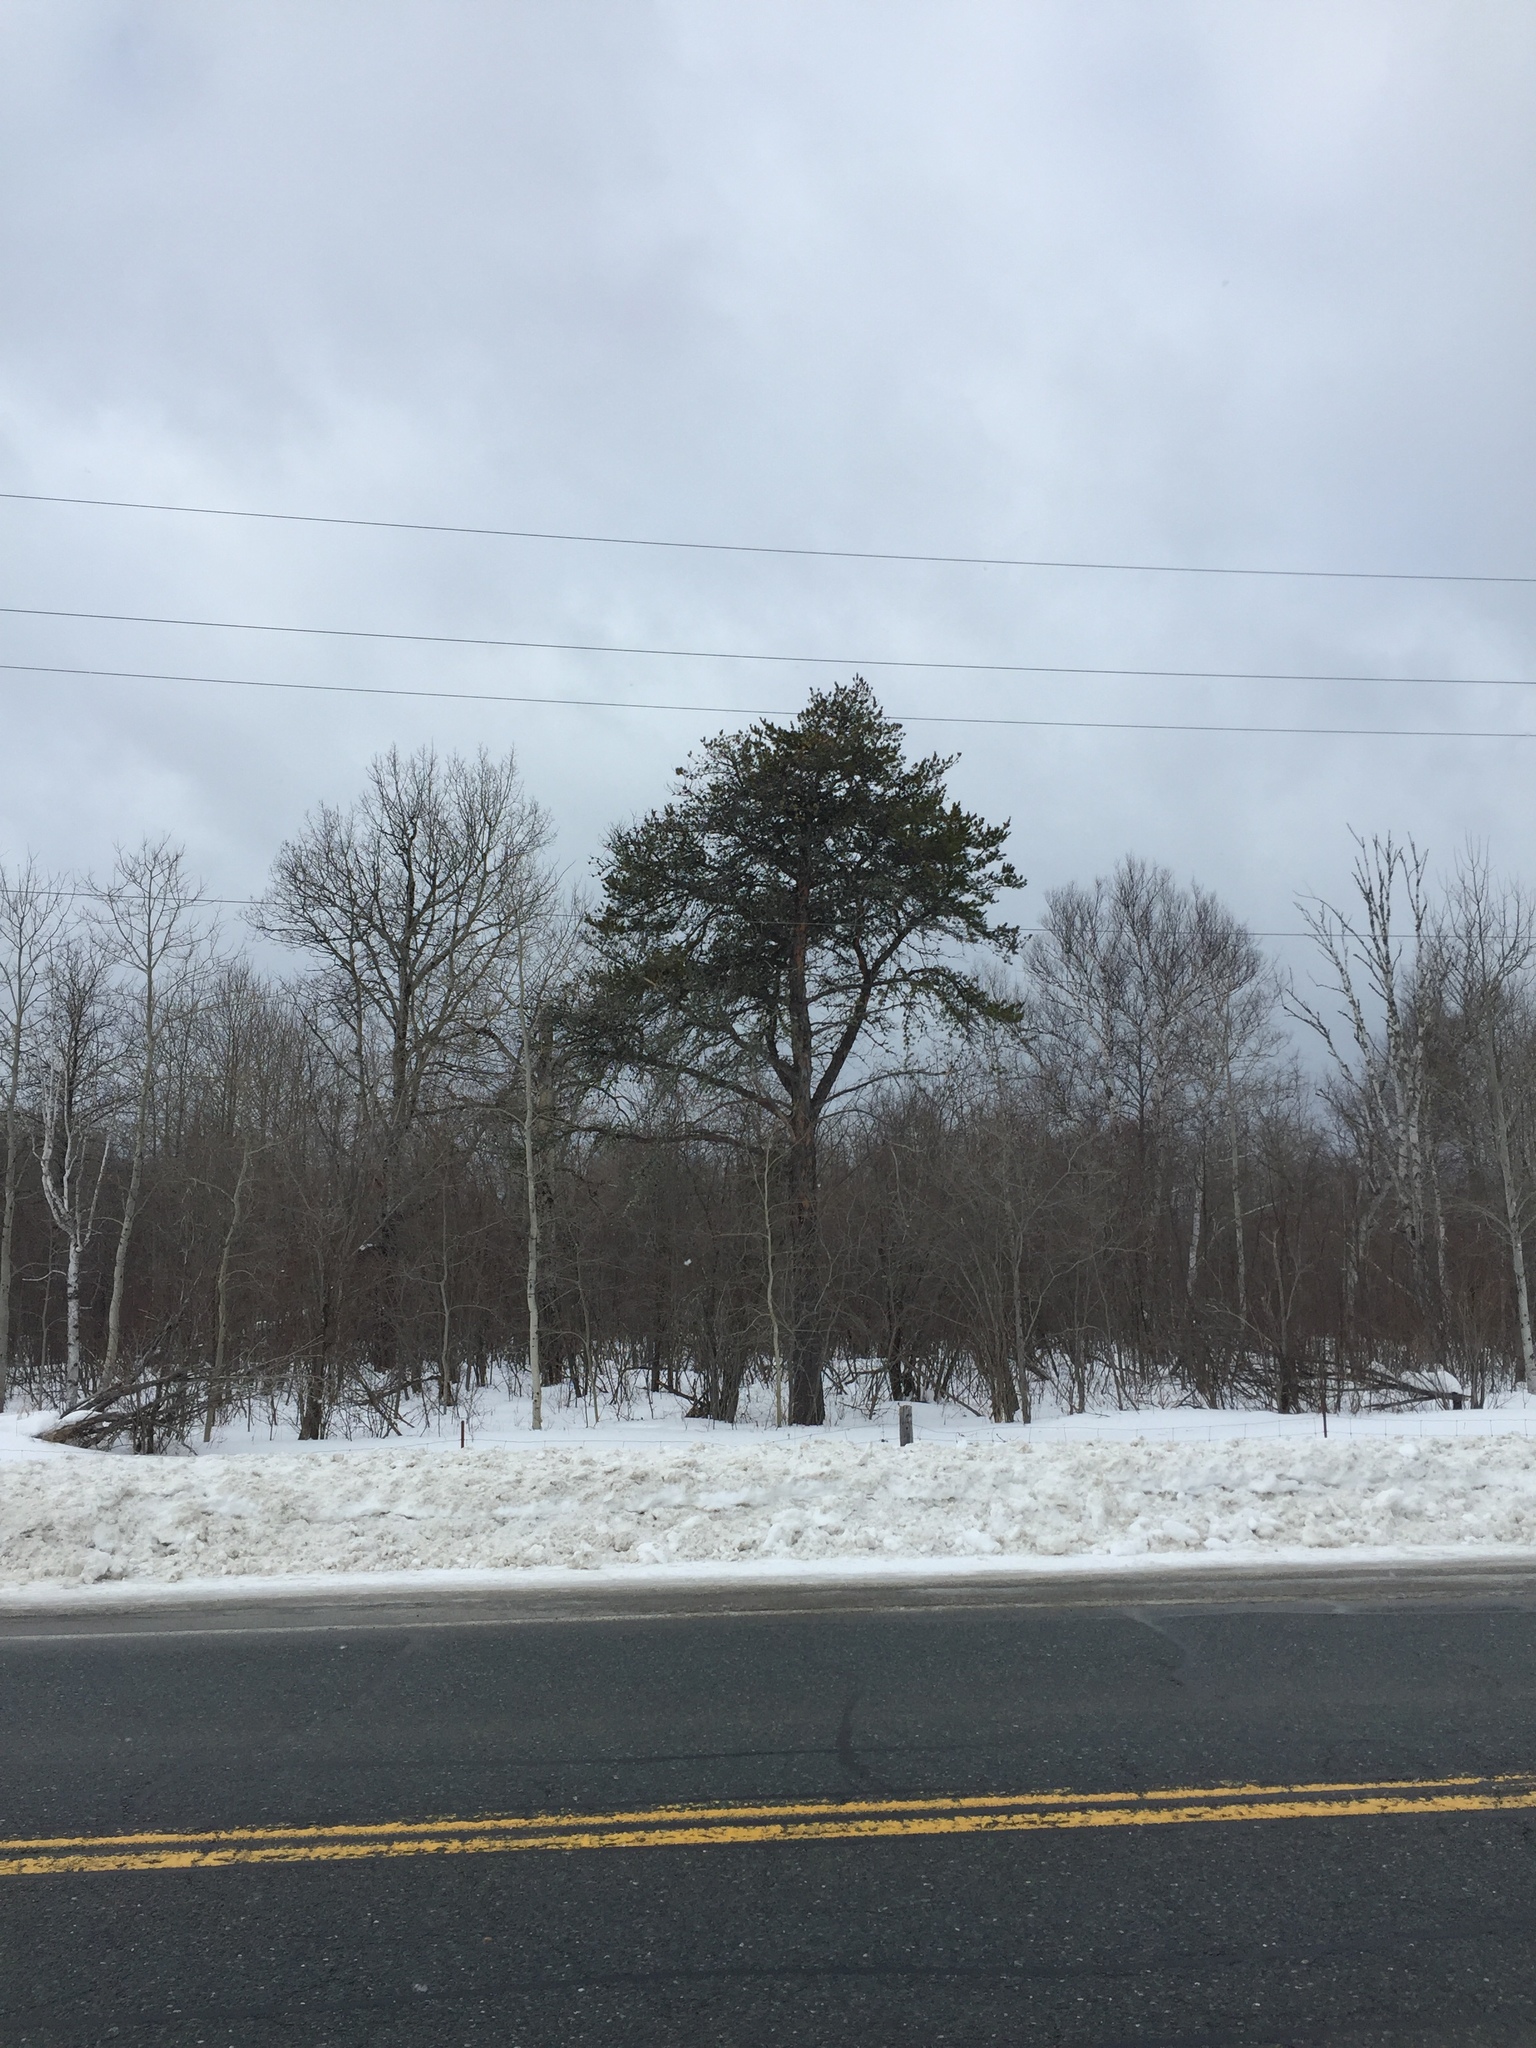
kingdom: Plantae
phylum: Tracheophyta
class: Pinopsida
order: Pinales
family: Pinaceae
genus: Pinus
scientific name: Pinus banksiana
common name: Jack pine
